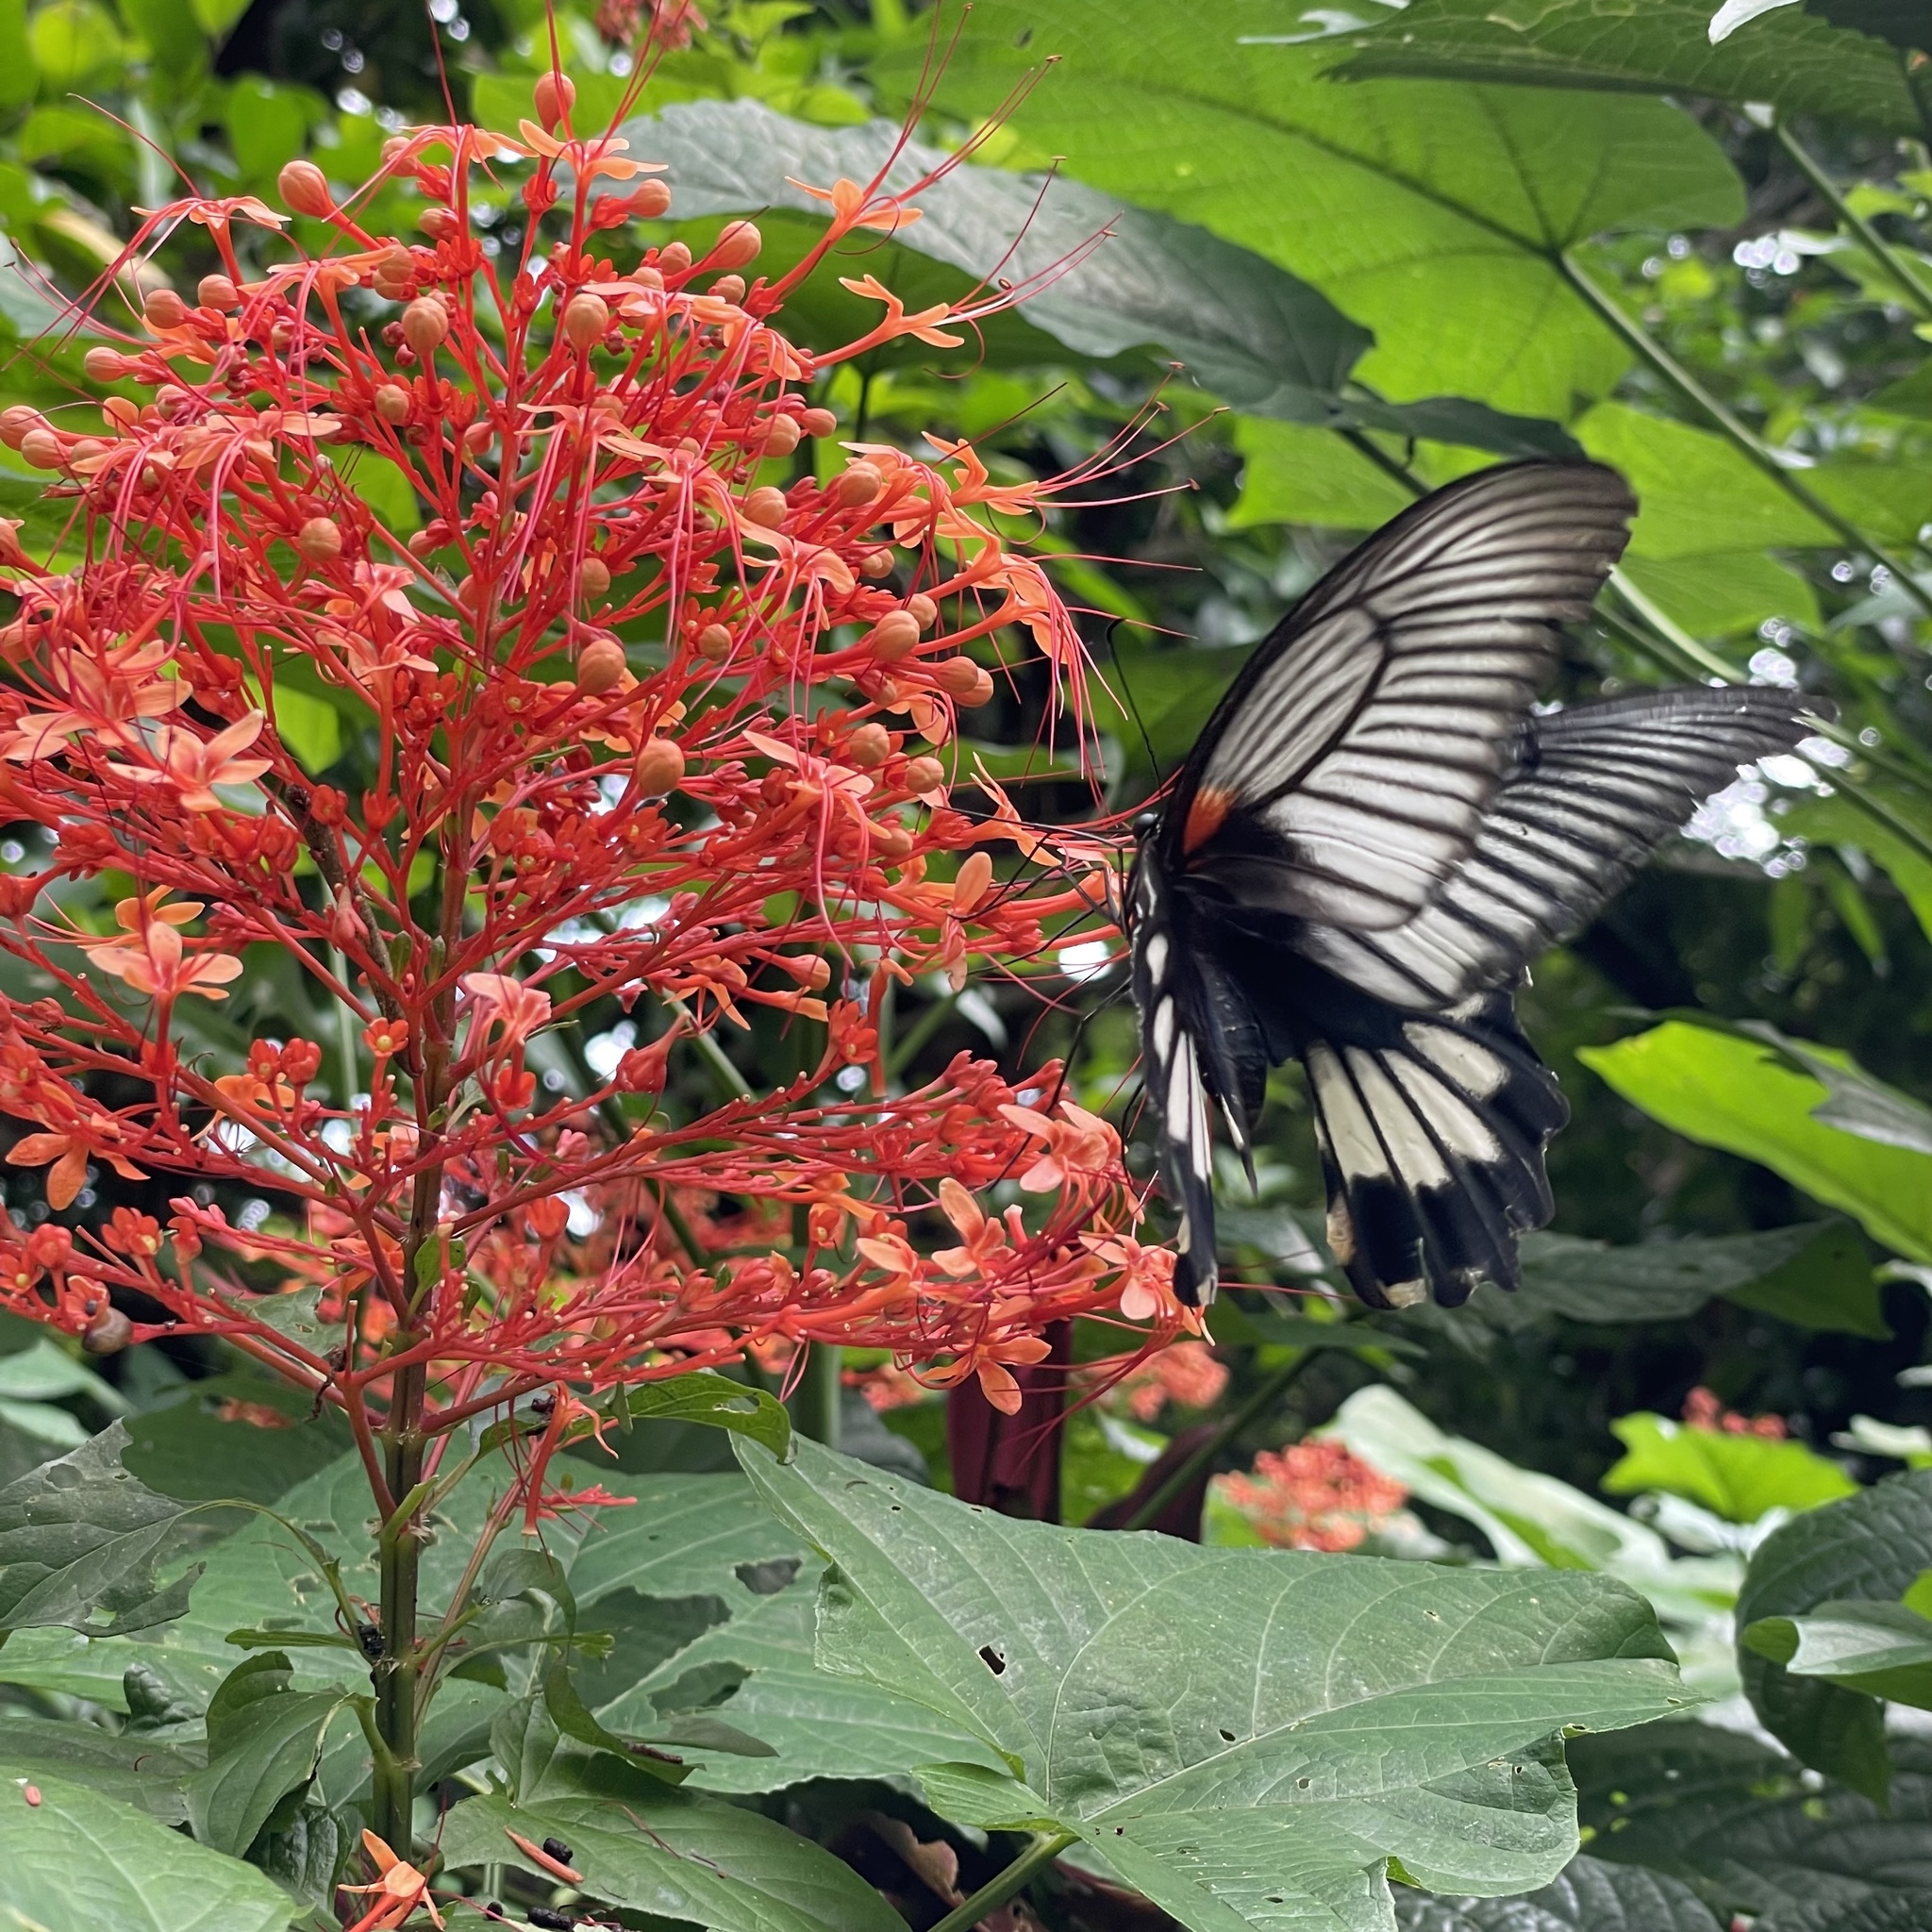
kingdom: Animalia
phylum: Arthropoda
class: Insecta
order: Lepidoptera
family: Papilionidae
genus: Papilio
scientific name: Papilio memnon
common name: Great mormon
